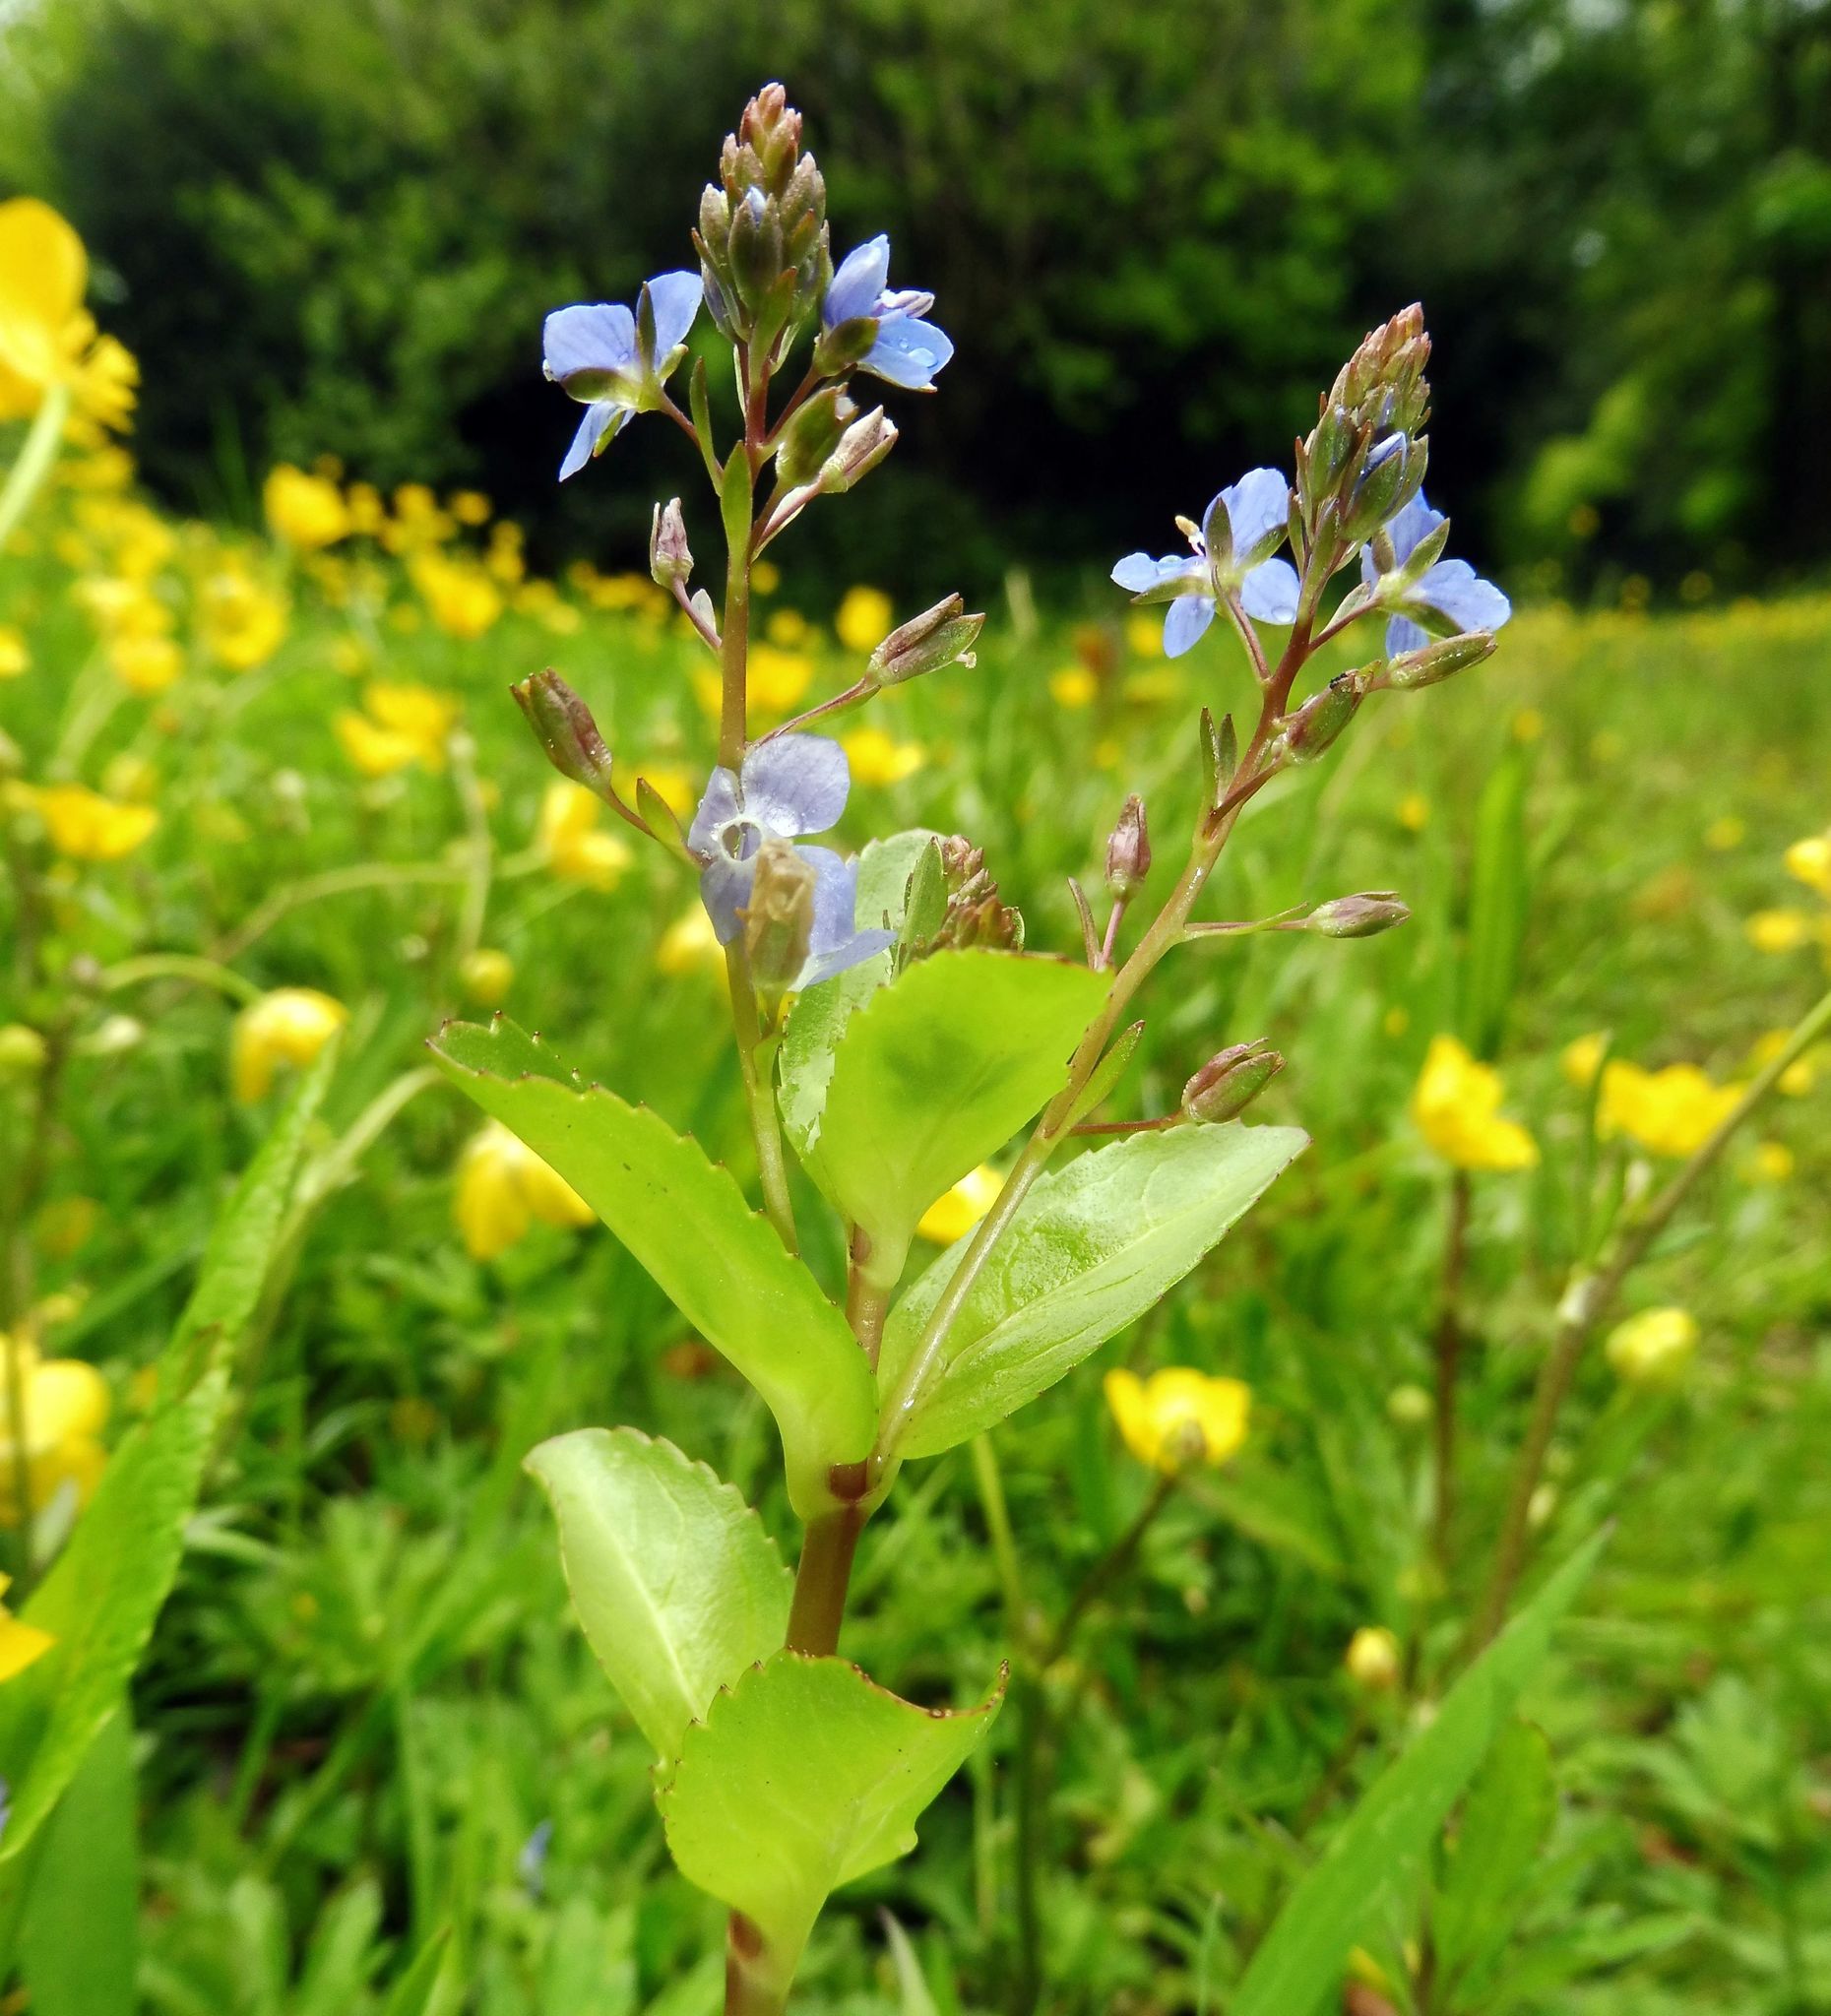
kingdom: Plantae
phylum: Tracheophyta
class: Magnoliopsida
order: Lamiales
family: Plantaginaceae
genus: Veronica
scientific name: Veronica beccabunga
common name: Brooklime
